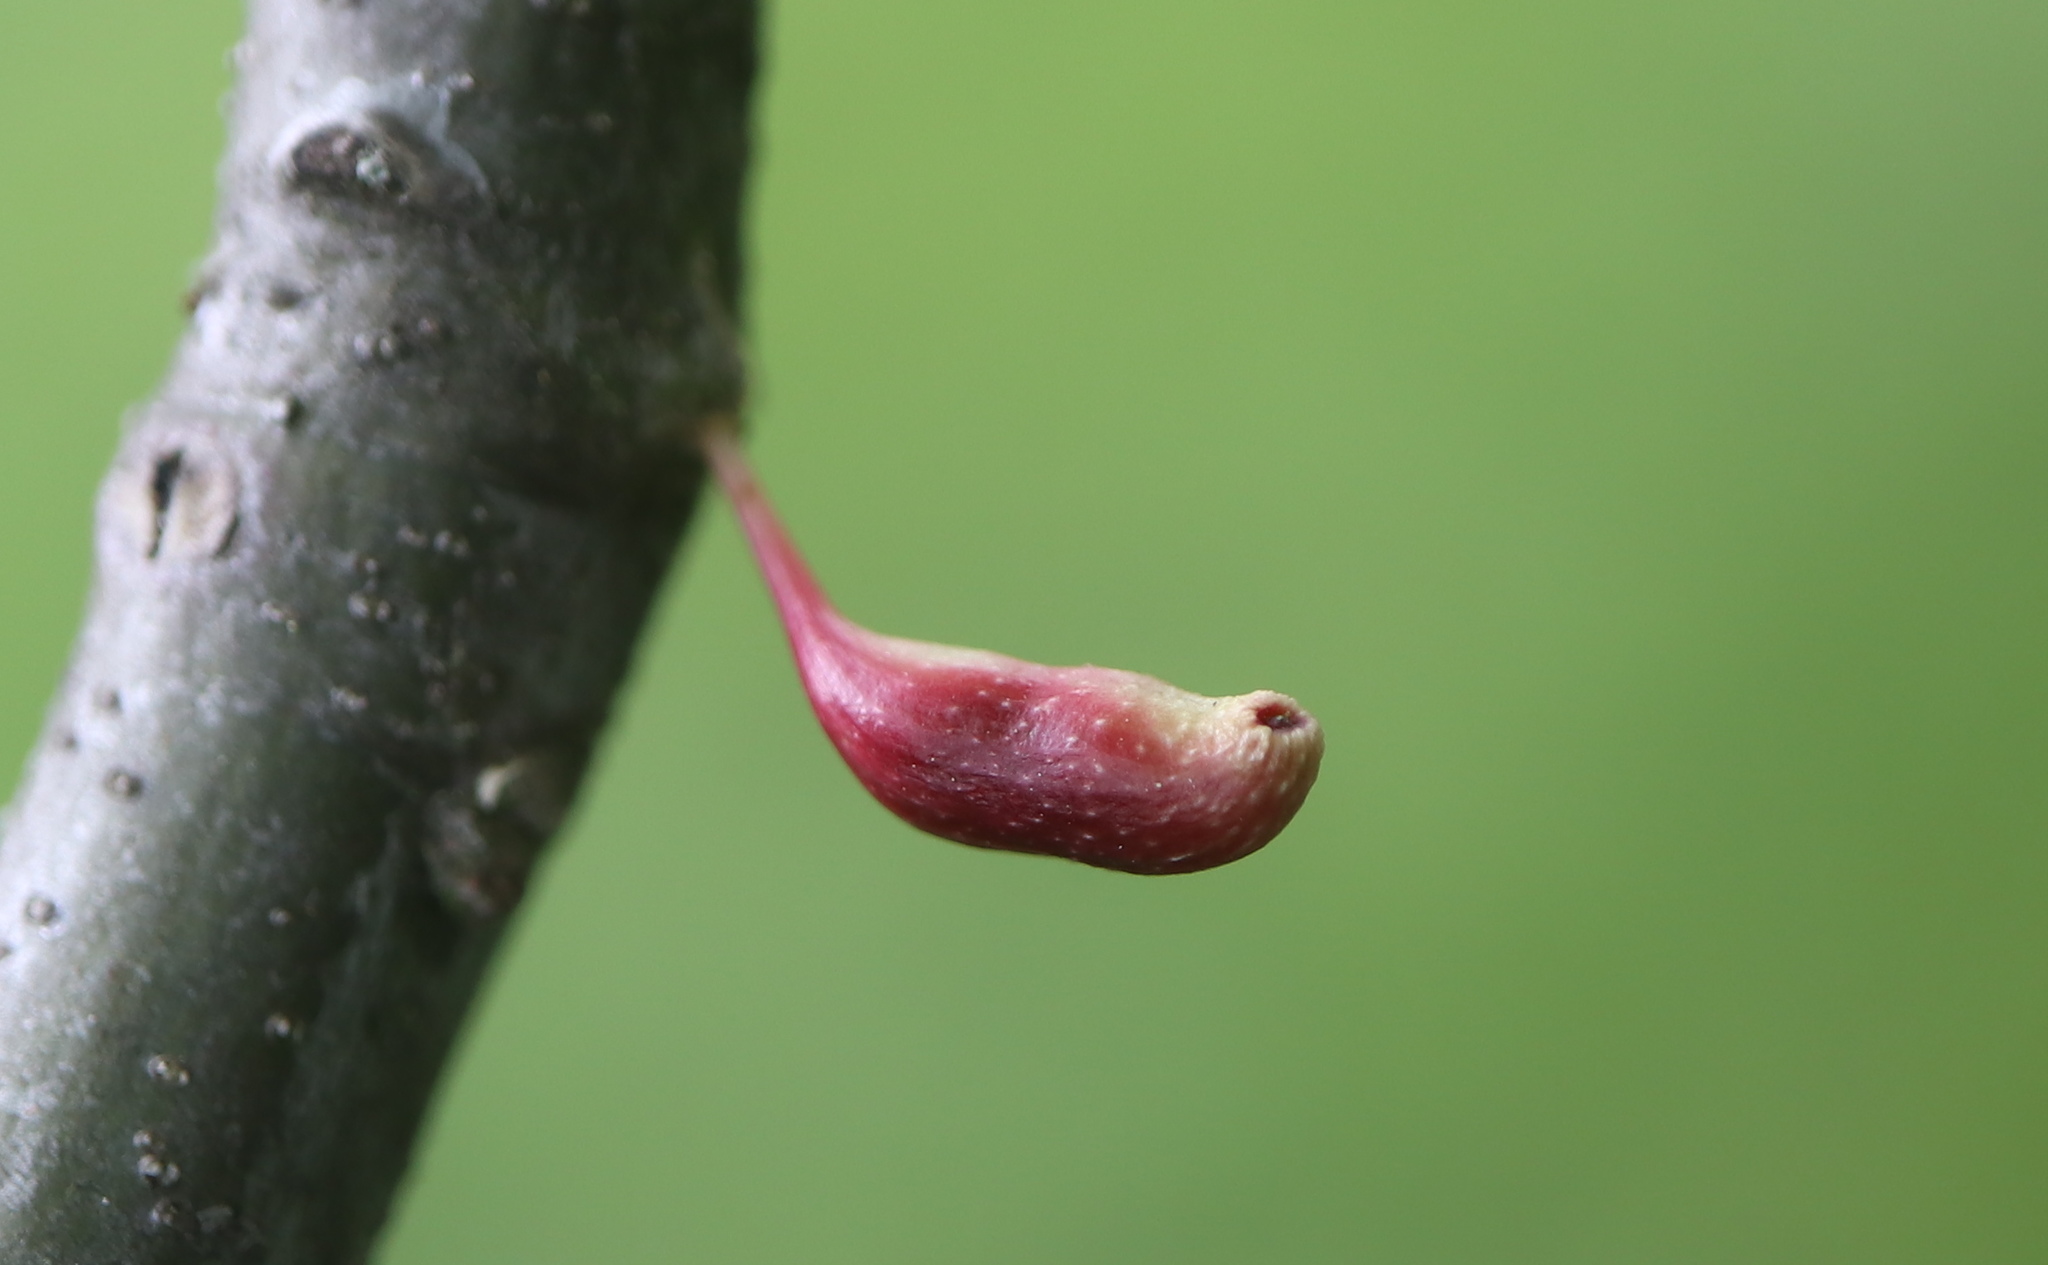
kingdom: Animalia
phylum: Arthropoda
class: Insecta
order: Hymenoptera
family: Cynipidae
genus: Callirhytis
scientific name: Callirhytis
